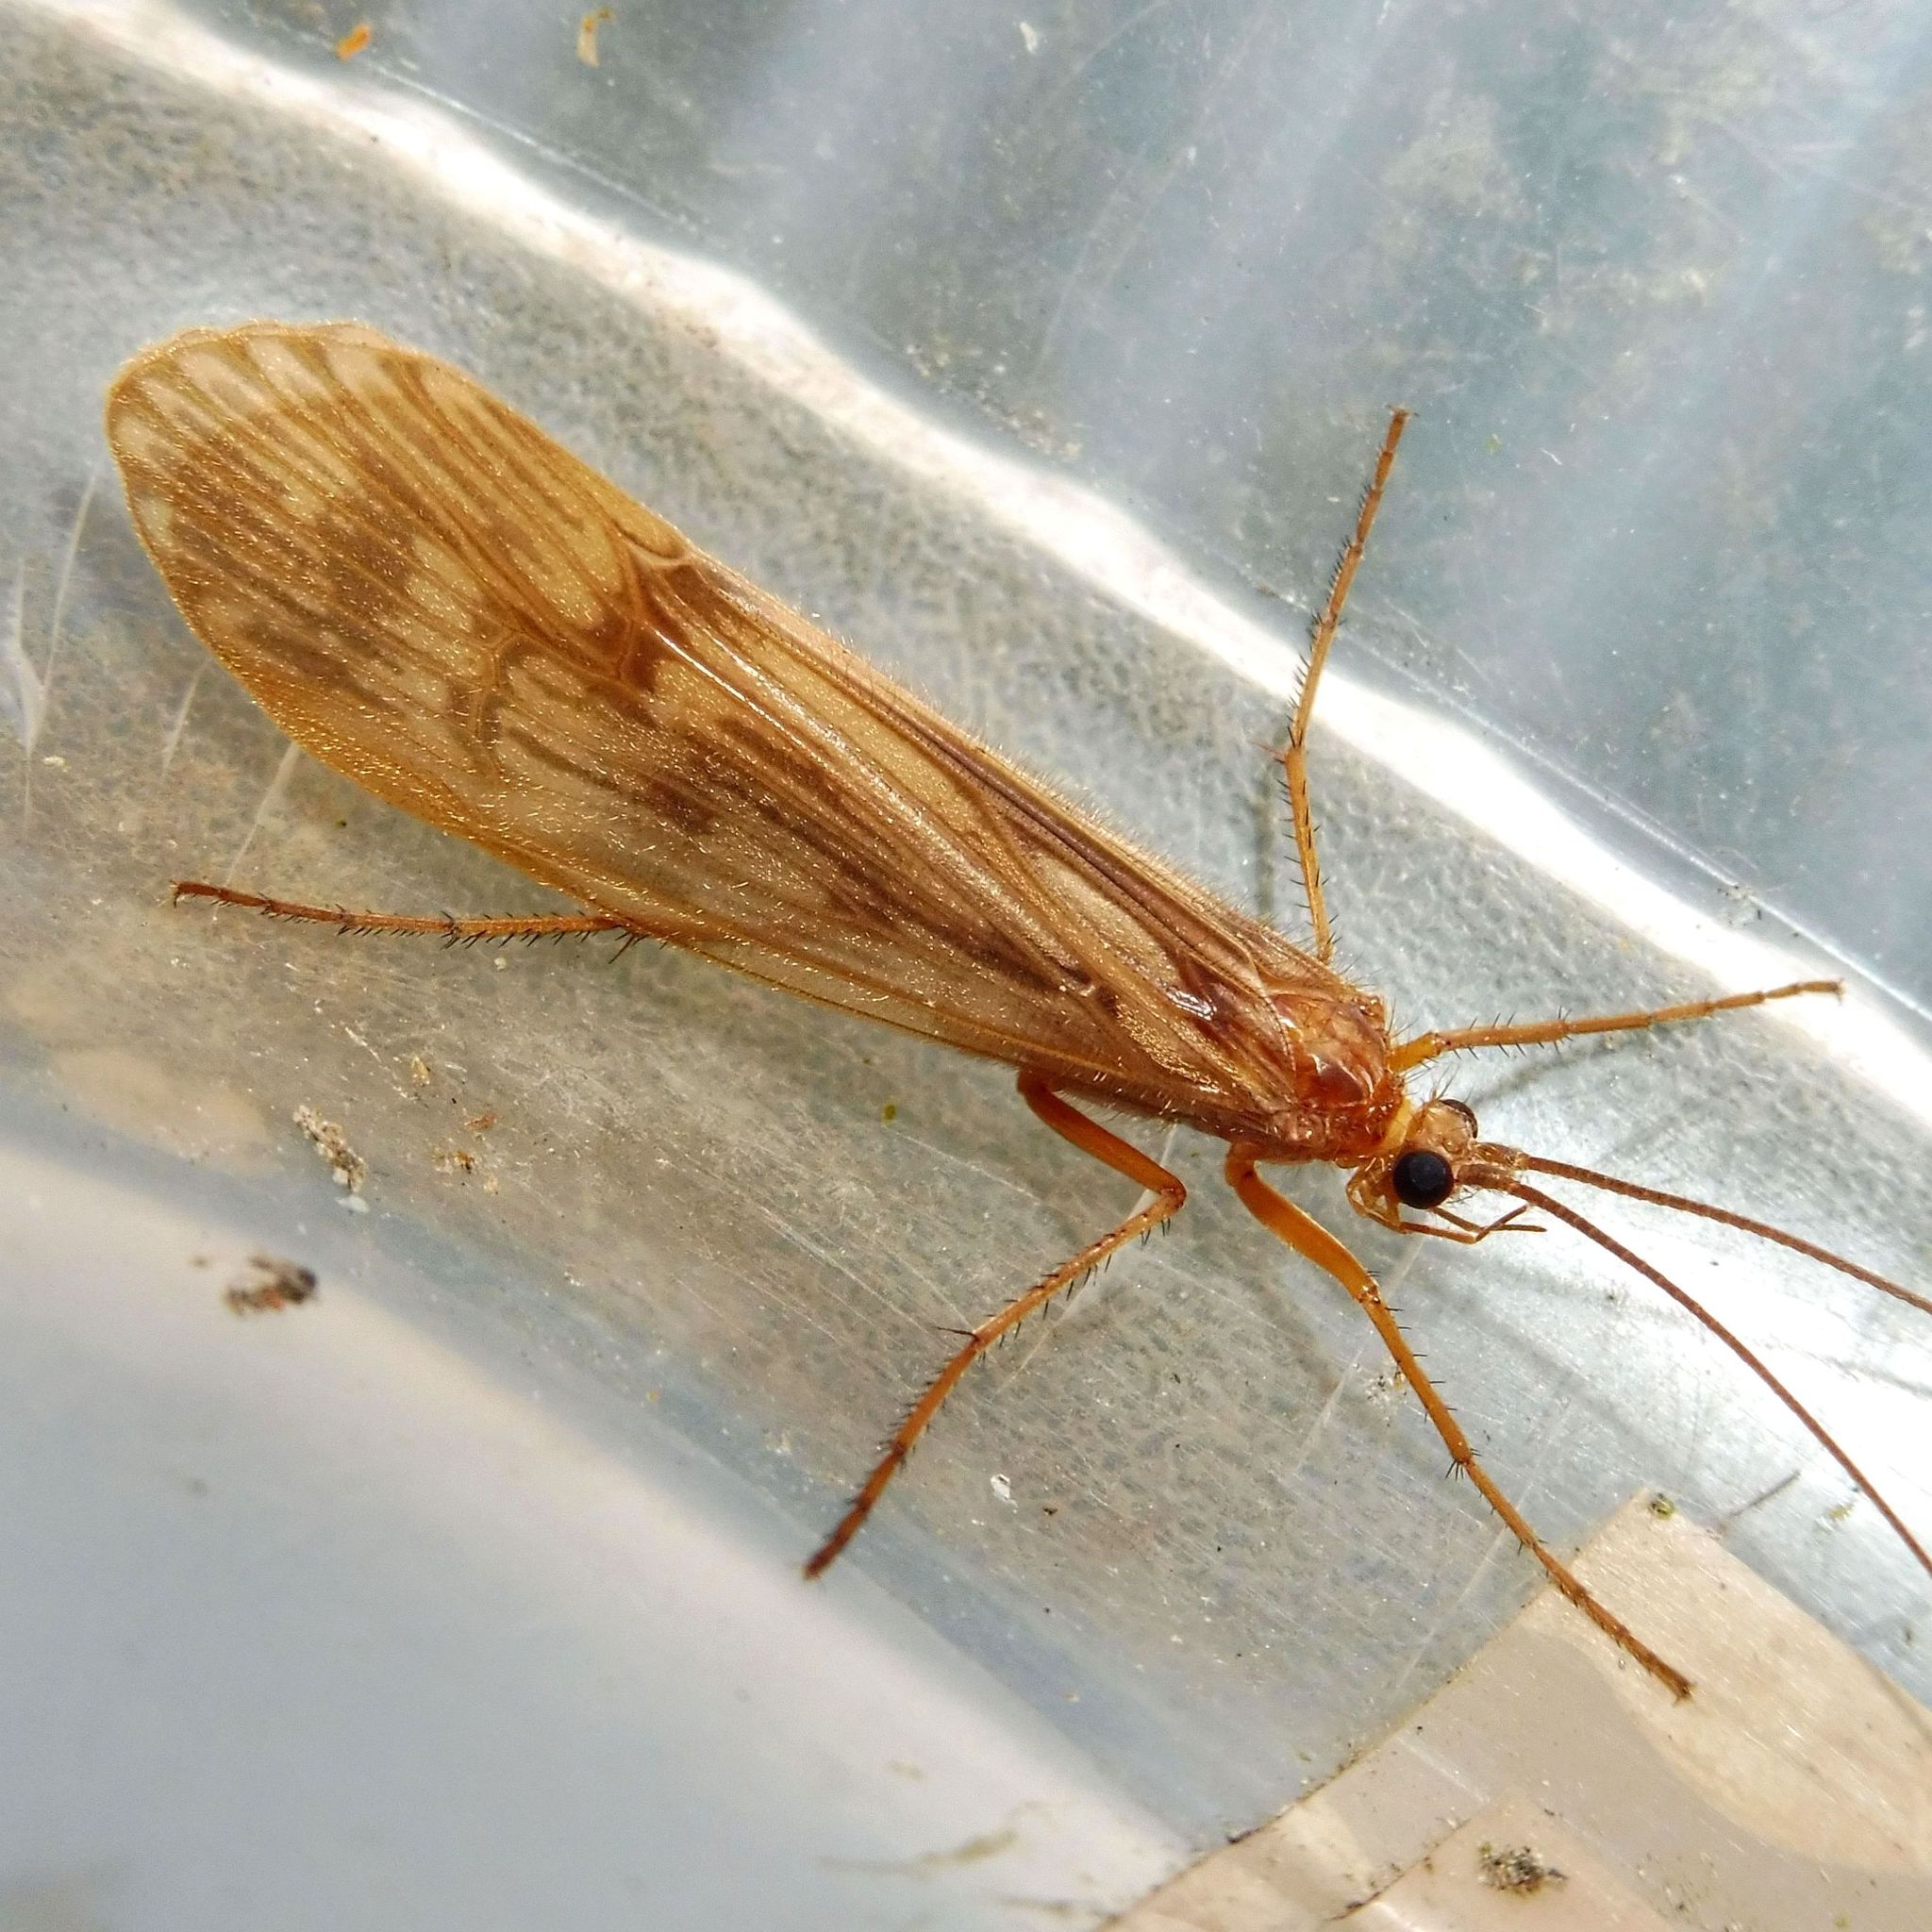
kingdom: Animalia
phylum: Arthropoda
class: Insecta
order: Trichoptera
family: Limnephilidae
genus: Halesus
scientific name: Halesus radiatus
